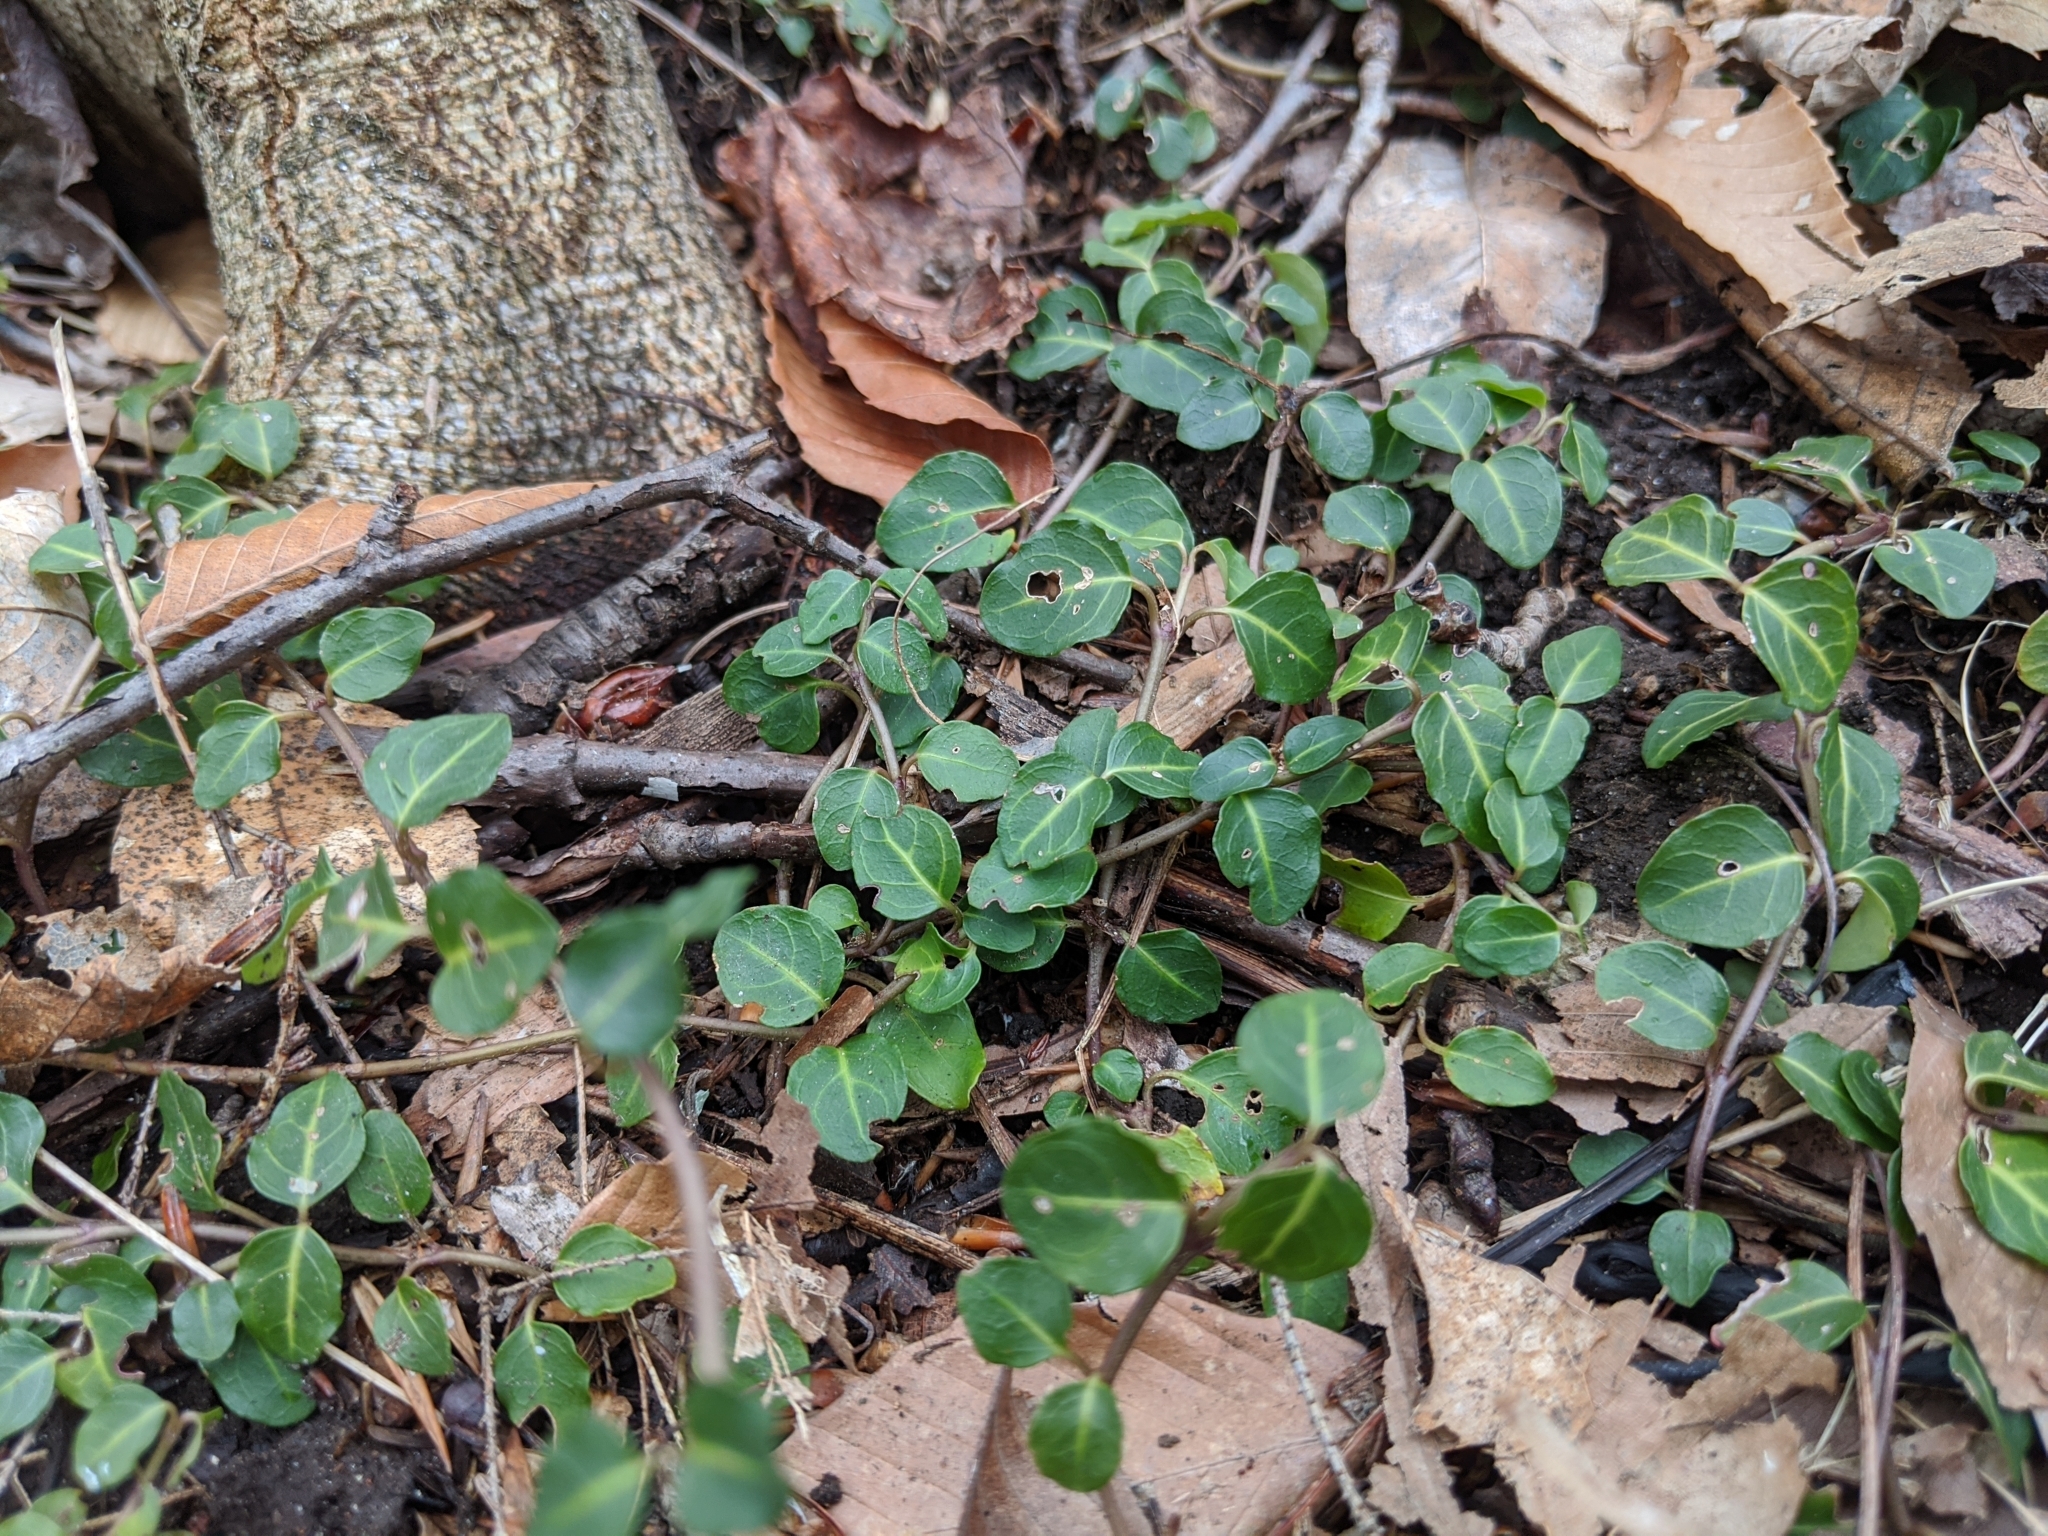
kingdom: Plantae
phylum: Tracheophyta
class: Magnoliopsida
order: Gentianales
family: Rubiaceae
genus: Mitchella
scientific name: Mitchella repens
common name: Partridge-berry
